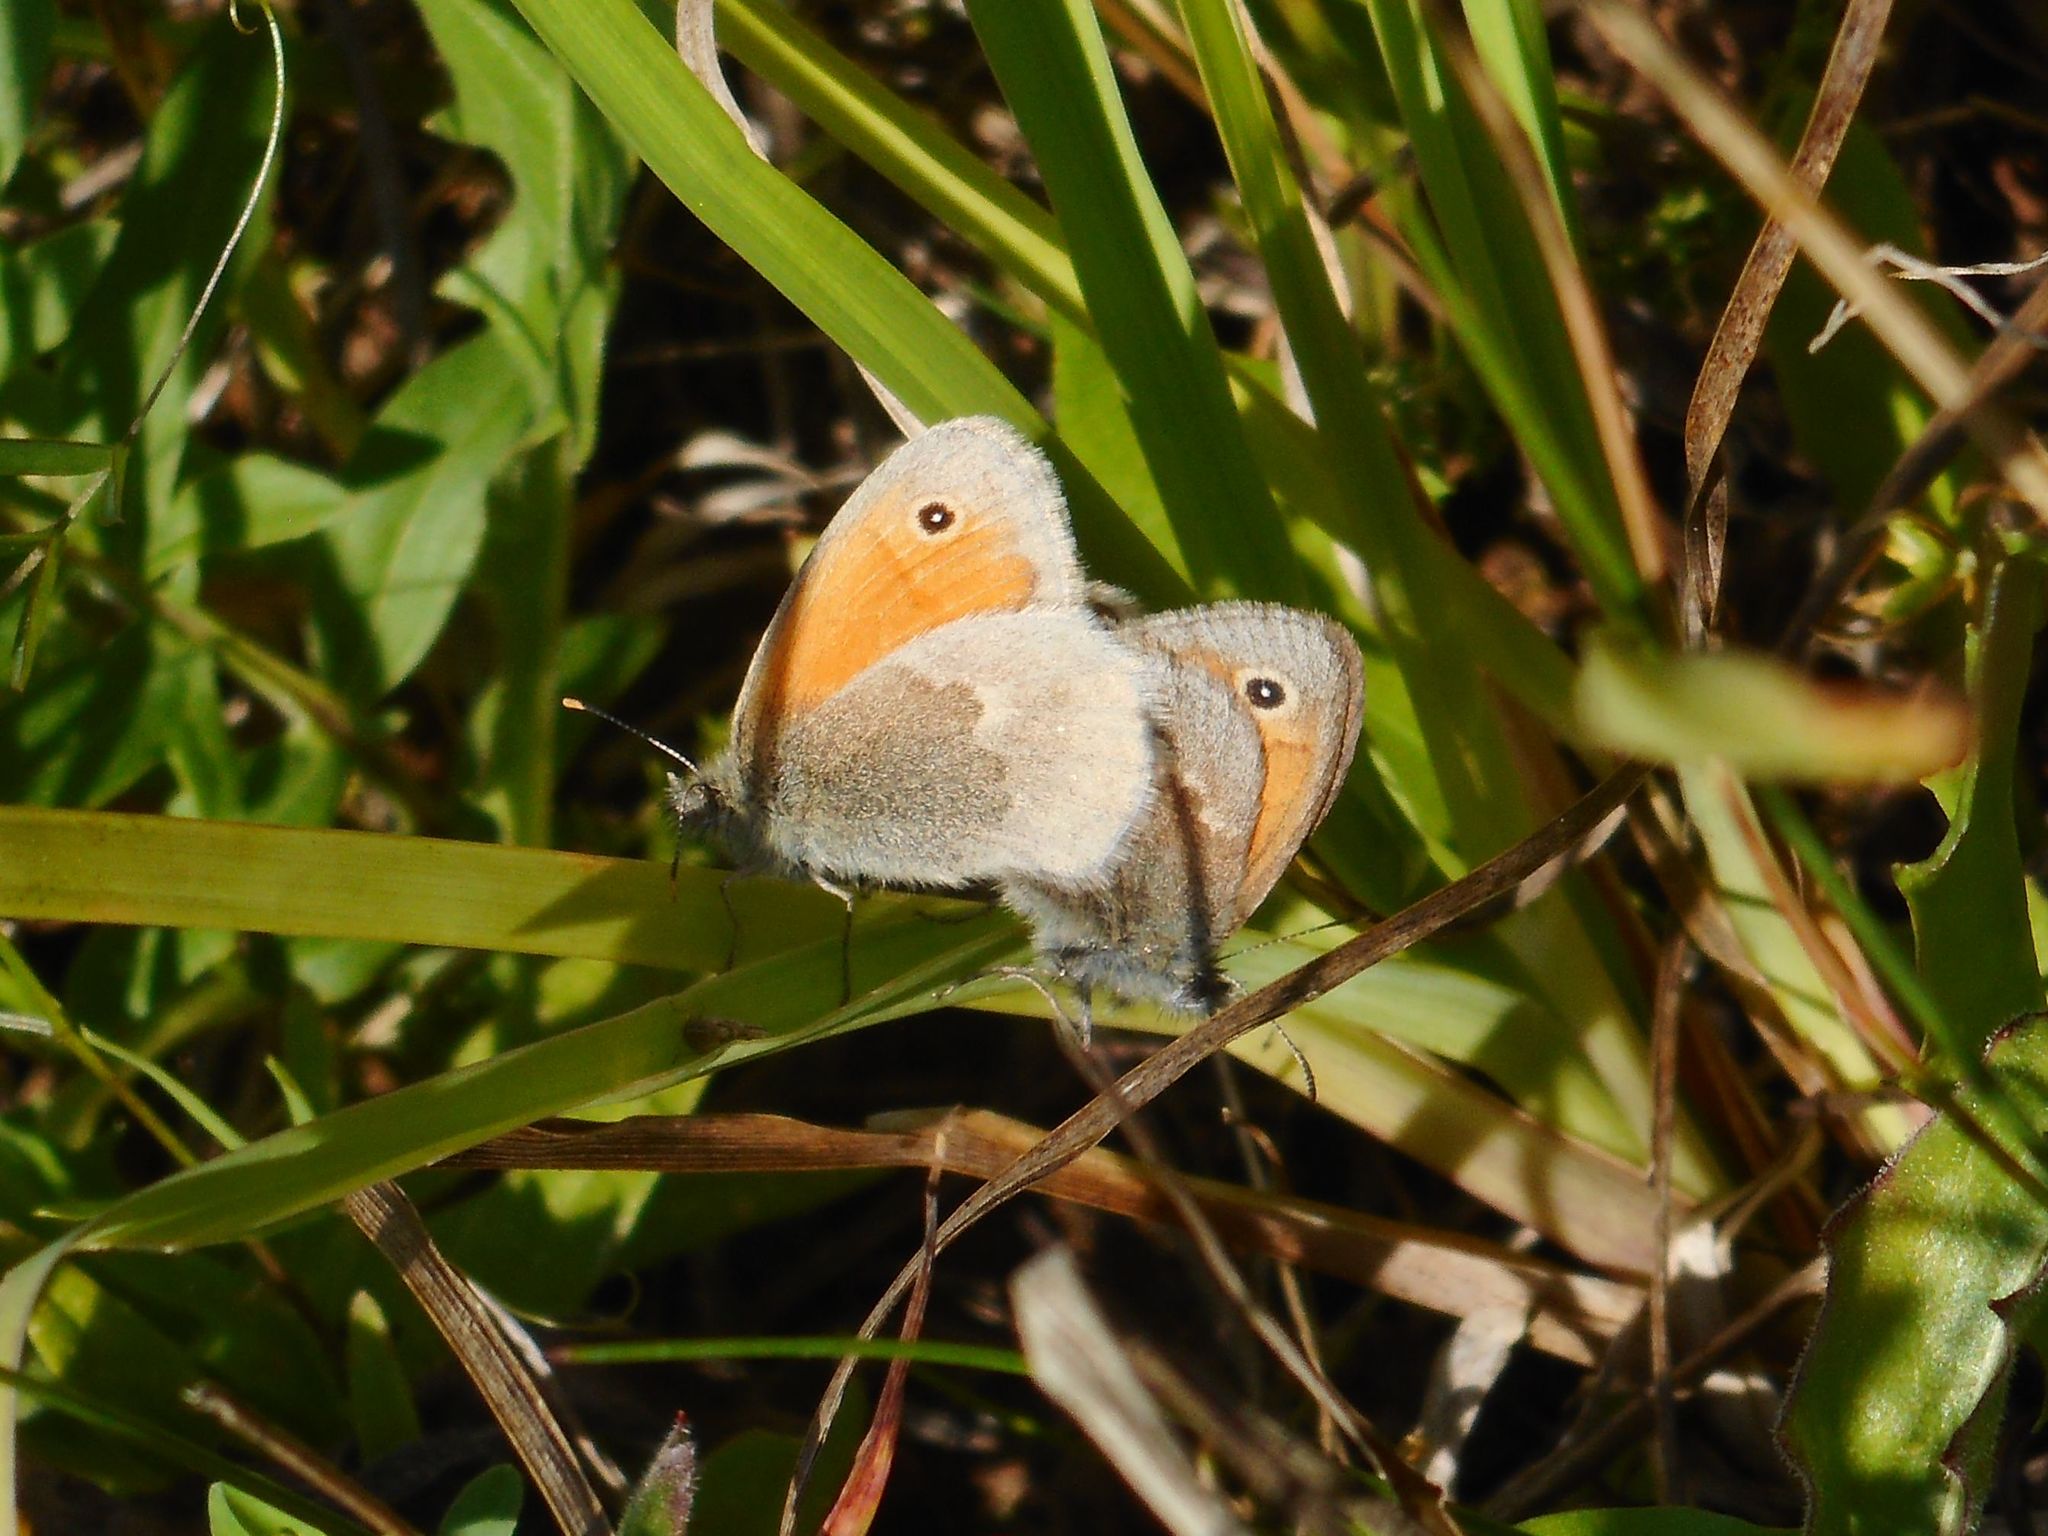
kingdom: Animalia
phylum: Arthropoda
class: Insecta
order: Lepidoptera
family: Nymphalidae
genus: Coenonympha
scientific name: Coenonympha pamphilus
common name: Small heath
